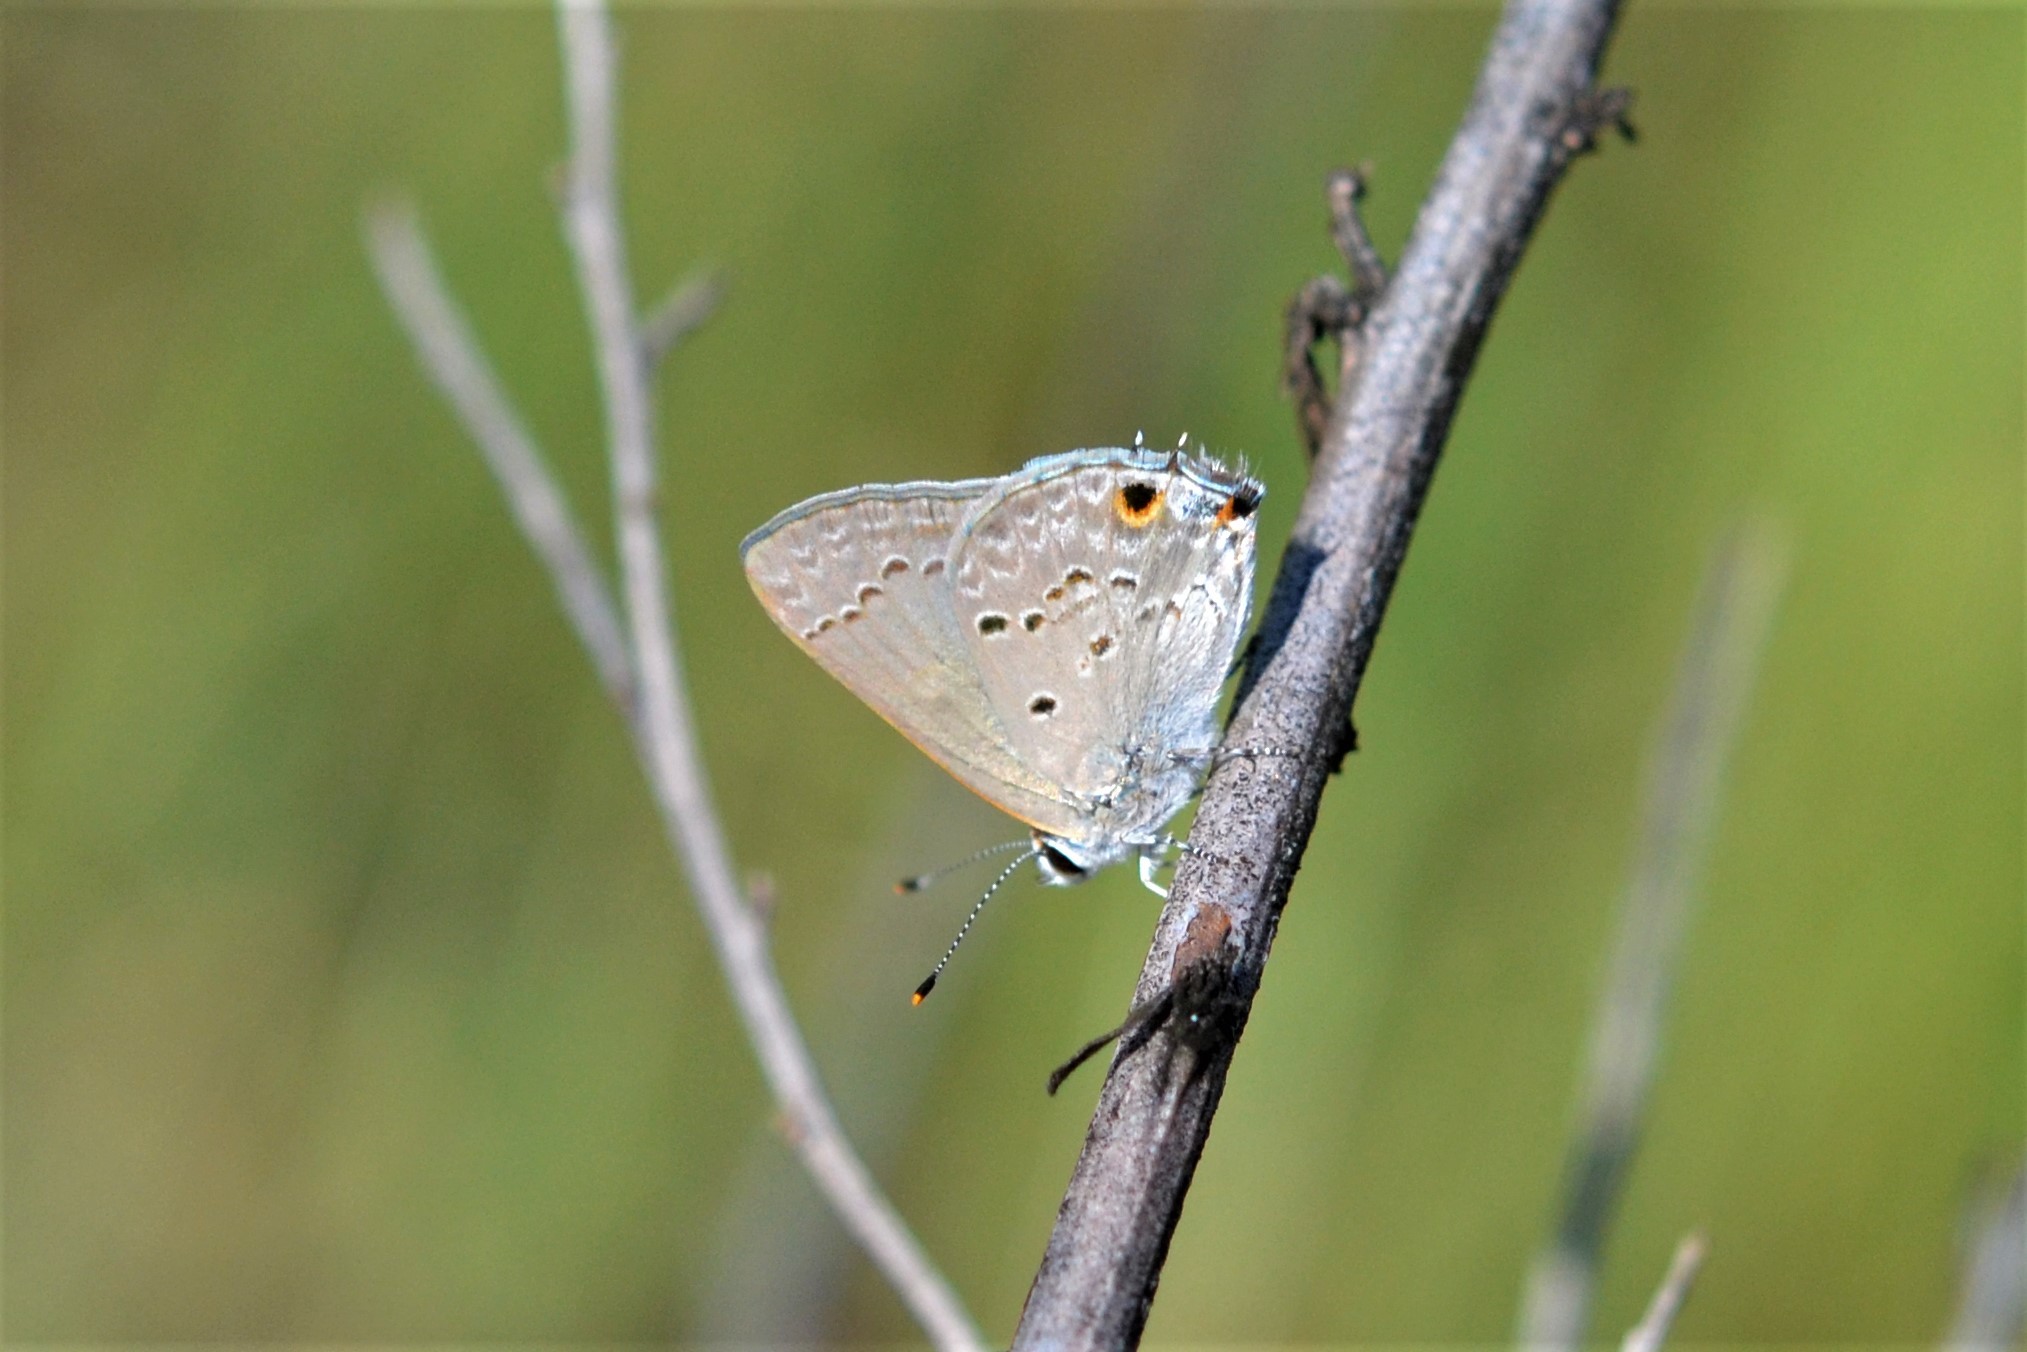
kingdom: Animalia
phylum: Arthropoda
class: Insecta
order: Lepidoptera
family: Lycaenidae
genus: Callicista
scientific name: Callicista columella
